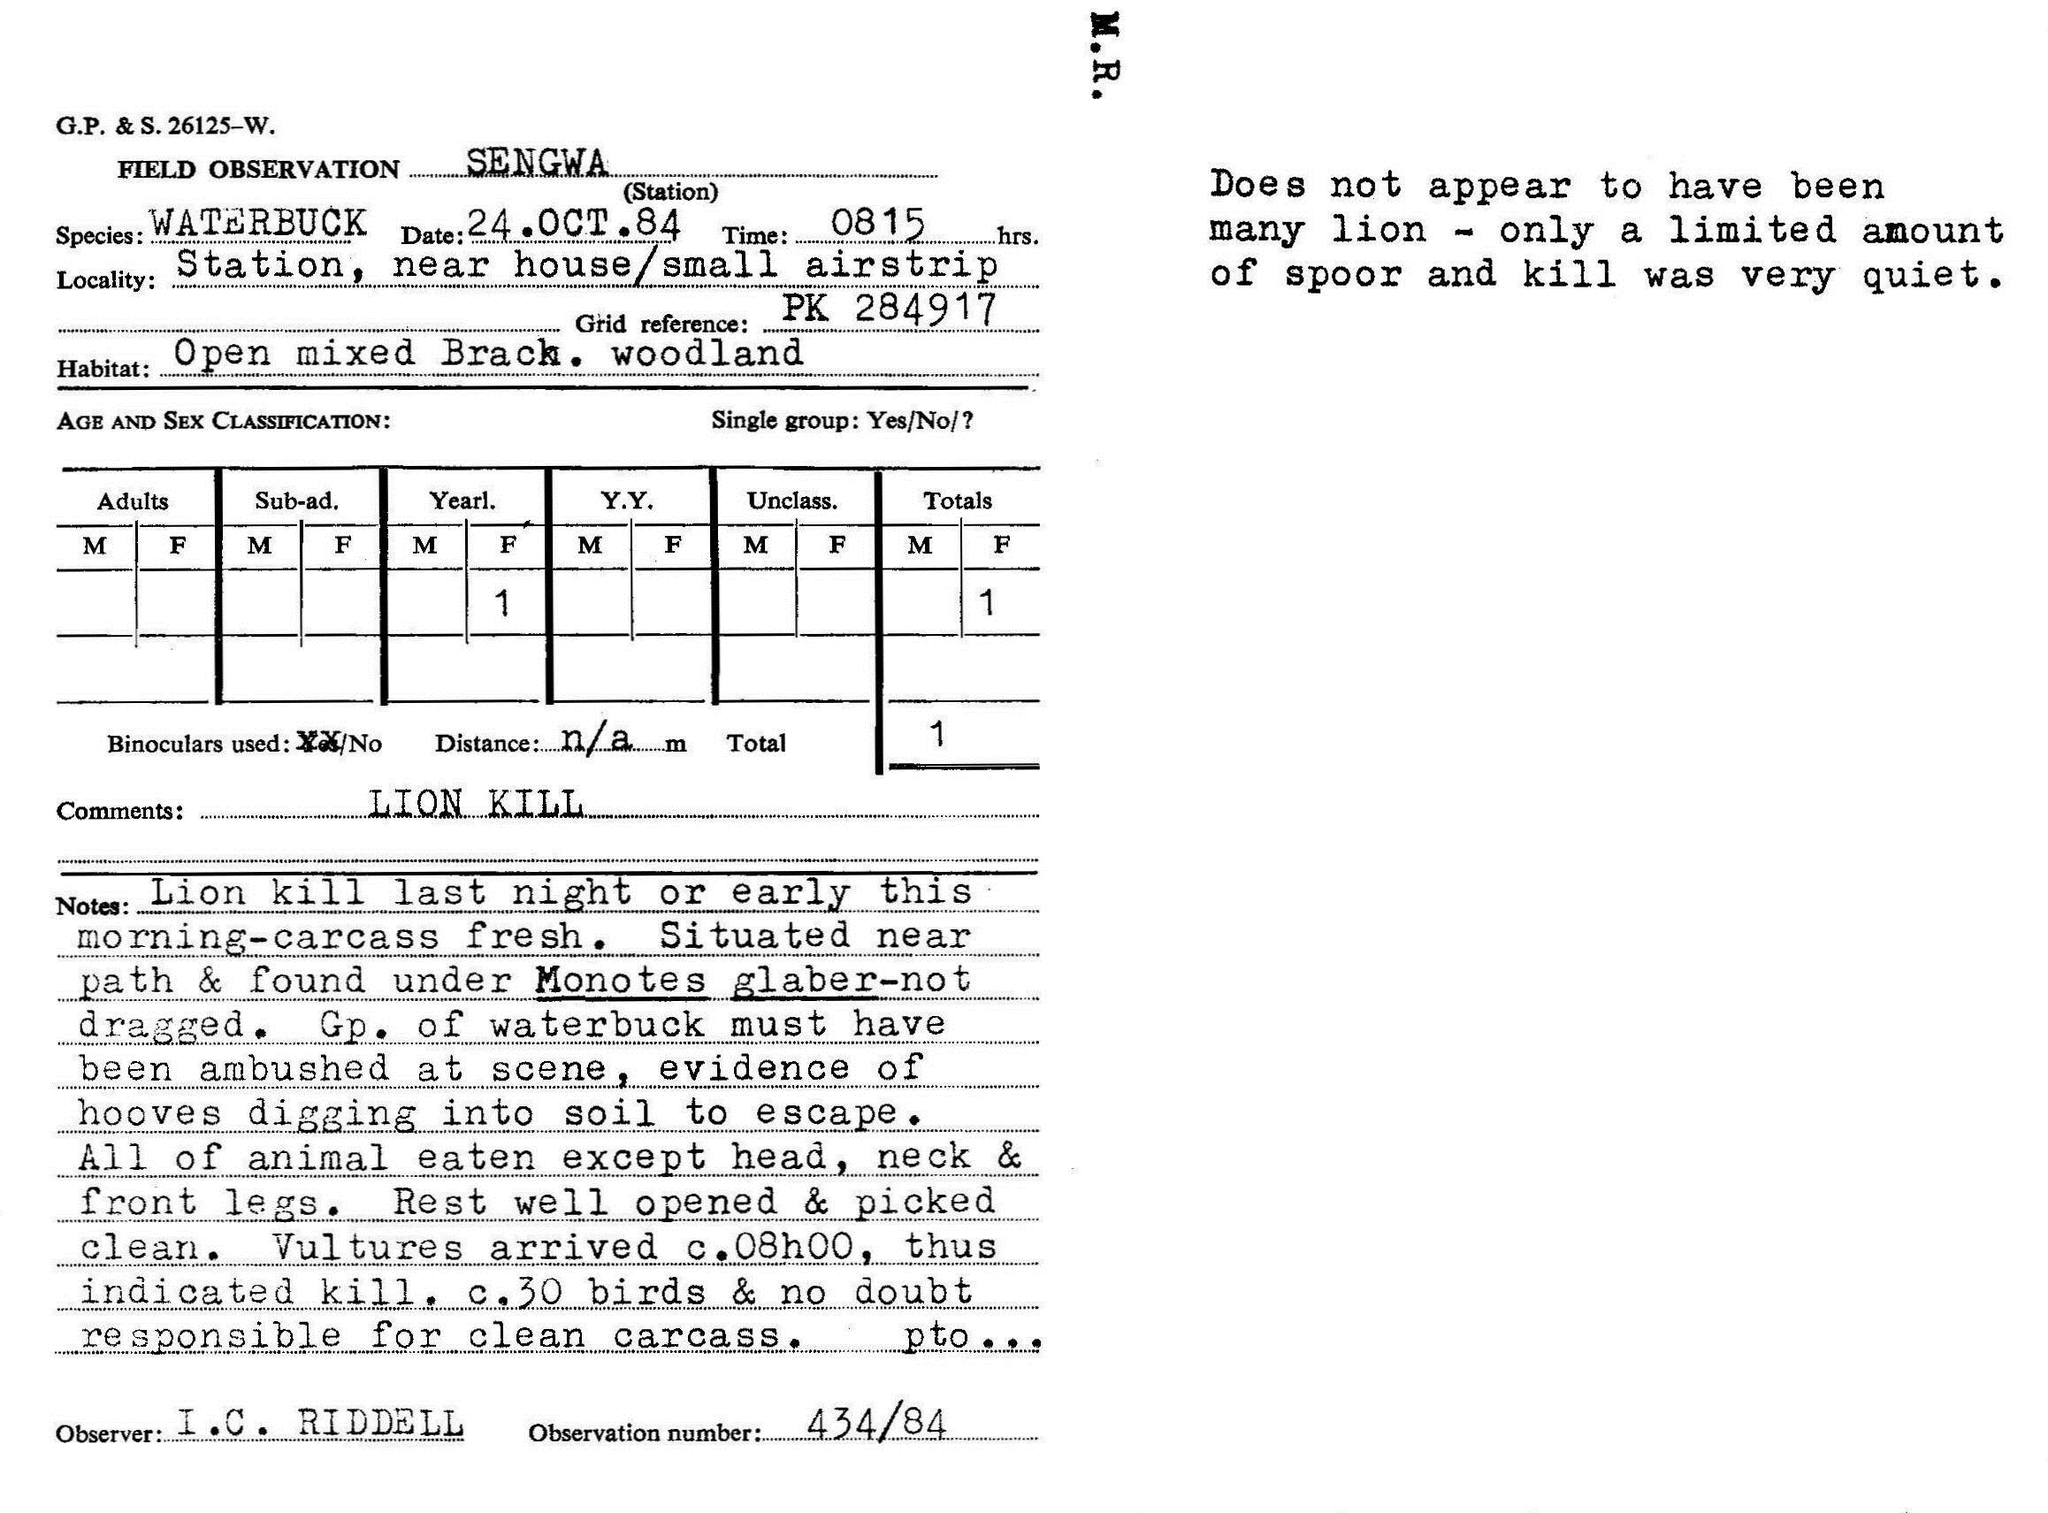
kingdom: Animalia
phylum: Chordata
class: Mammalia
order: Artiodactyla
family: Bovidae
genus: Kobus
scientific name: Kobus ellipsiprymnus
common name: Waterbuck
